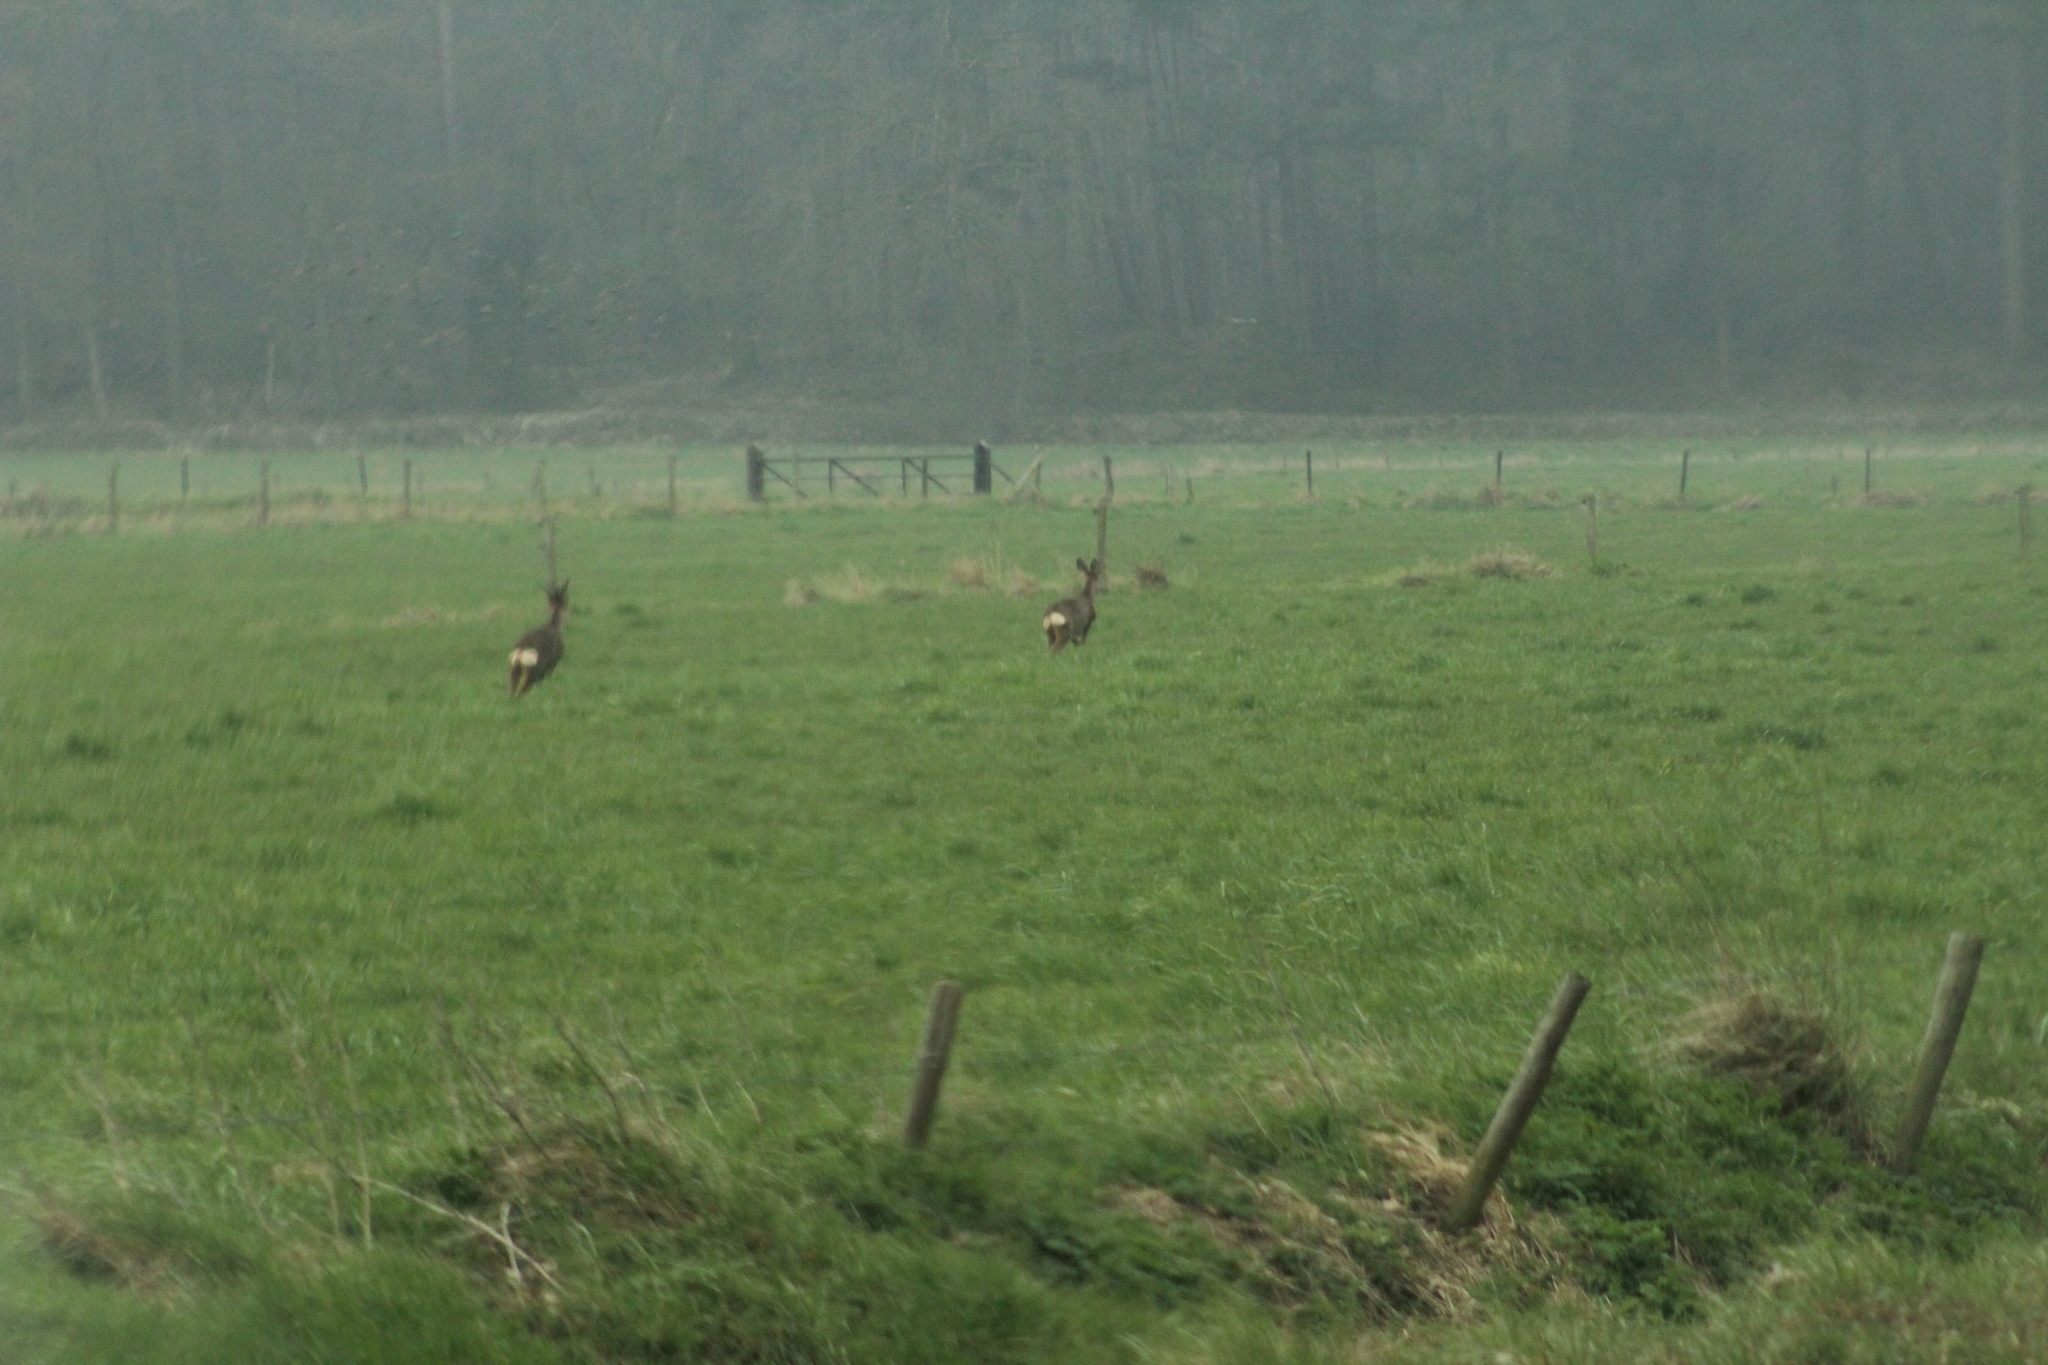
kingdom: Animalia
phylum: Chordata
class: Mammalia
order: Artiodactyla
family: Cervidae
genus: Capreolus
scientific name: Capreolus capreolus
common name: Western roe deer
